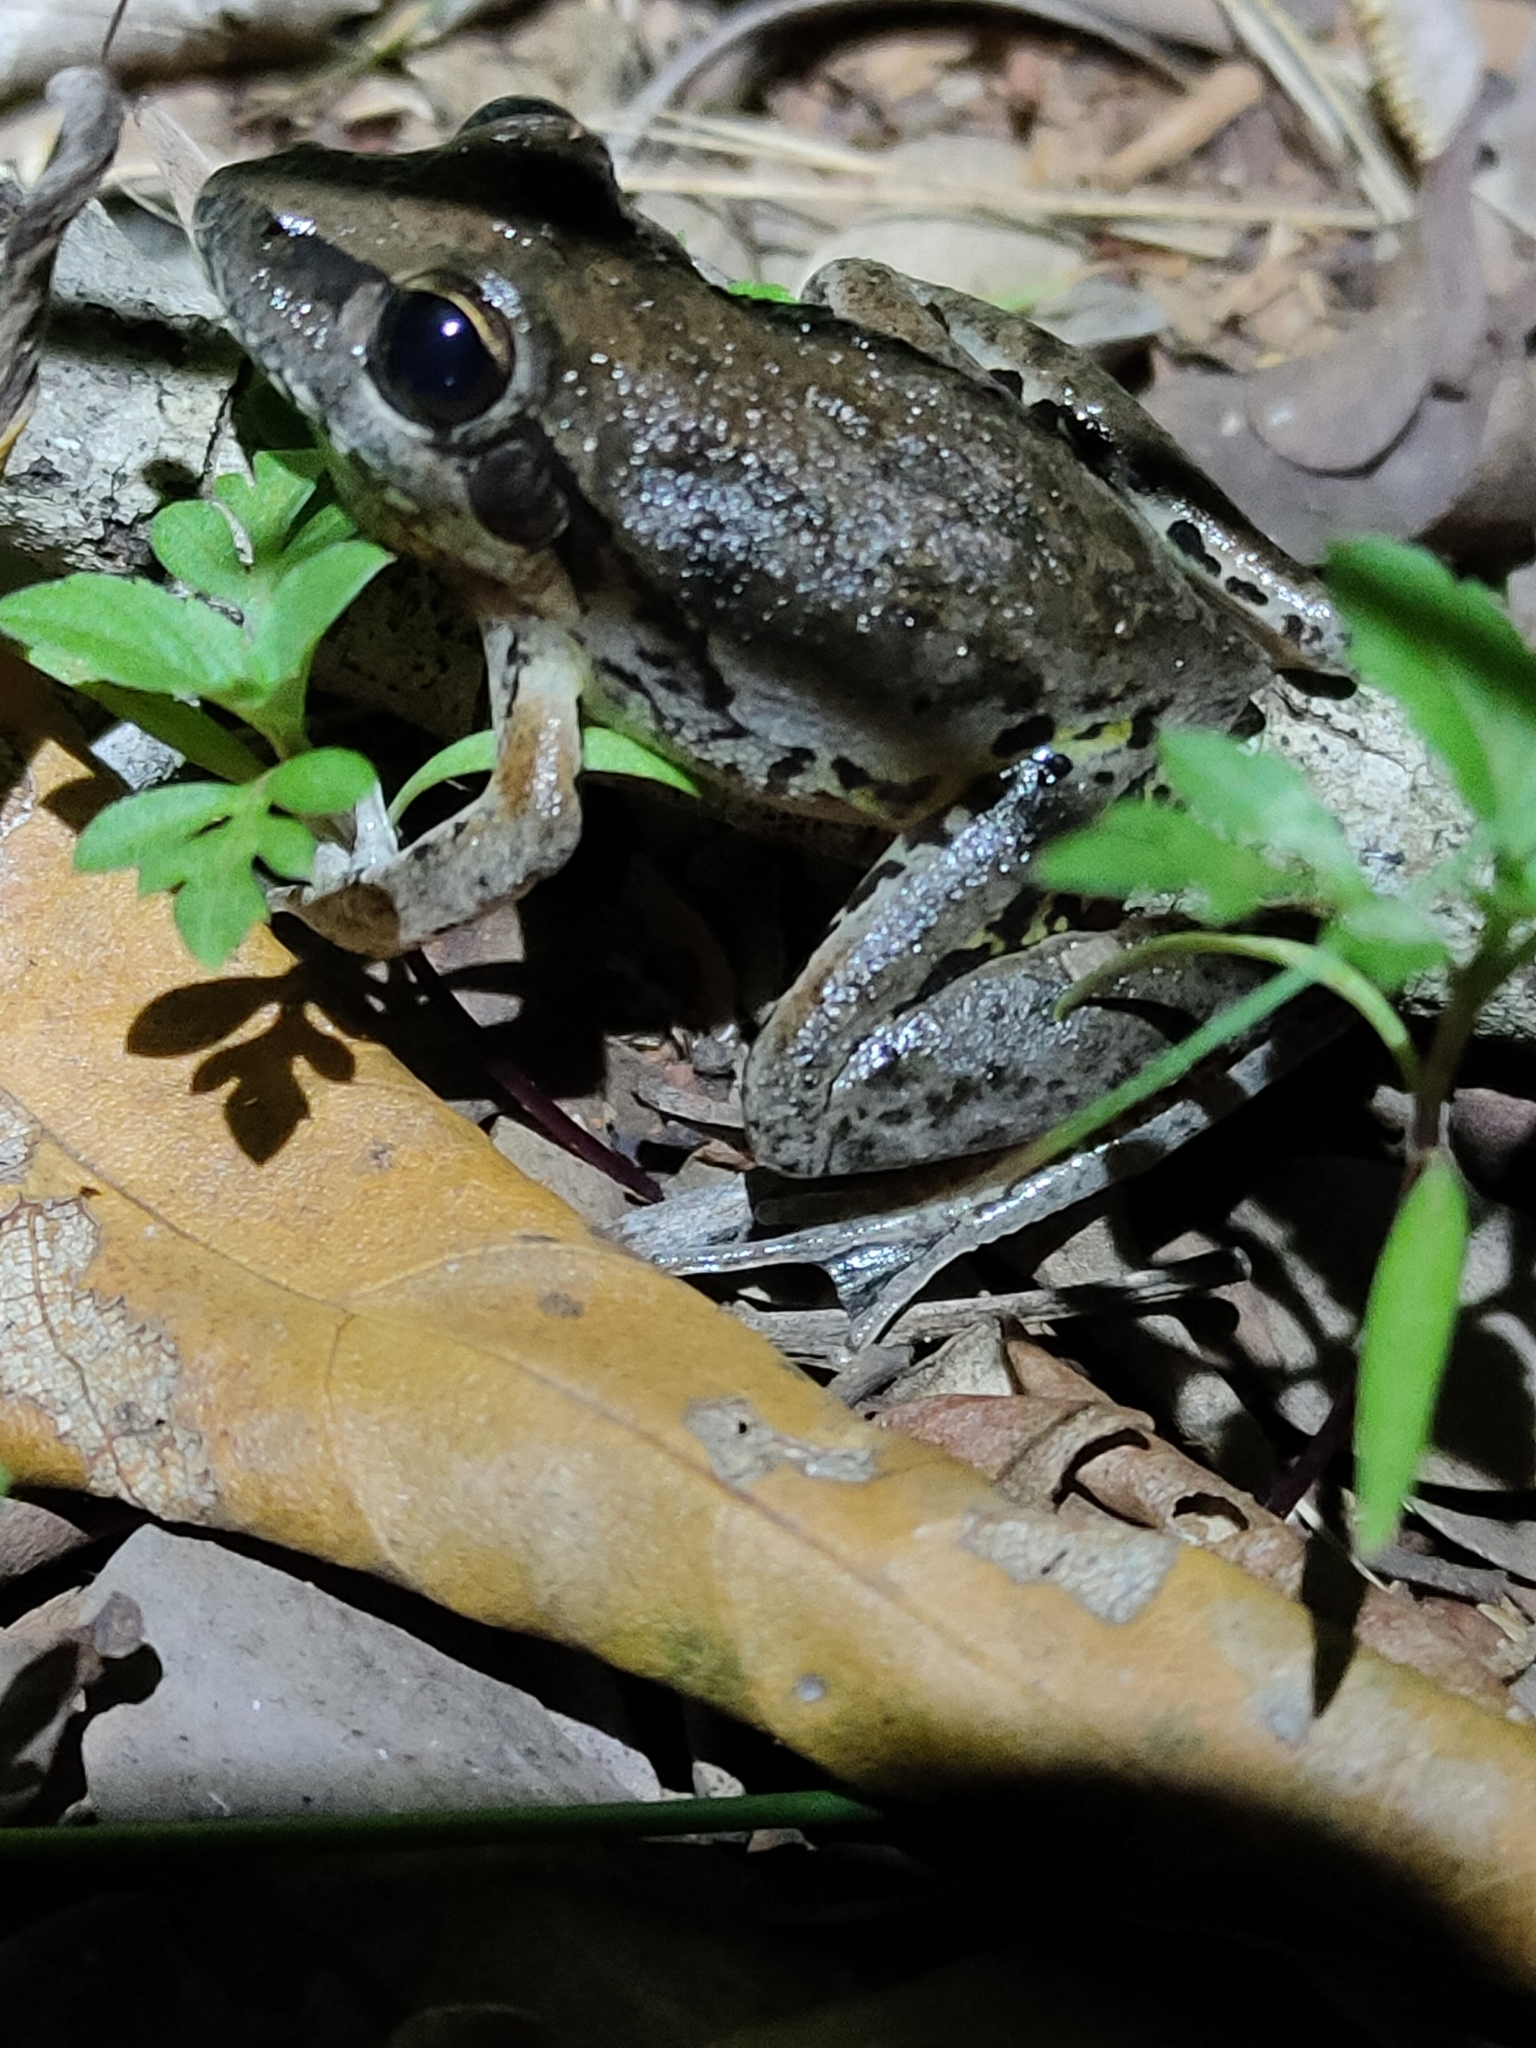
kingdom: Animalia
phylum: Chordata
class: Amphibia
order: Anura
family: Pelodryadidae
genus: Litoria
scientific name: Litoria latopalmata
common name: Broad-palmed rocket frog
